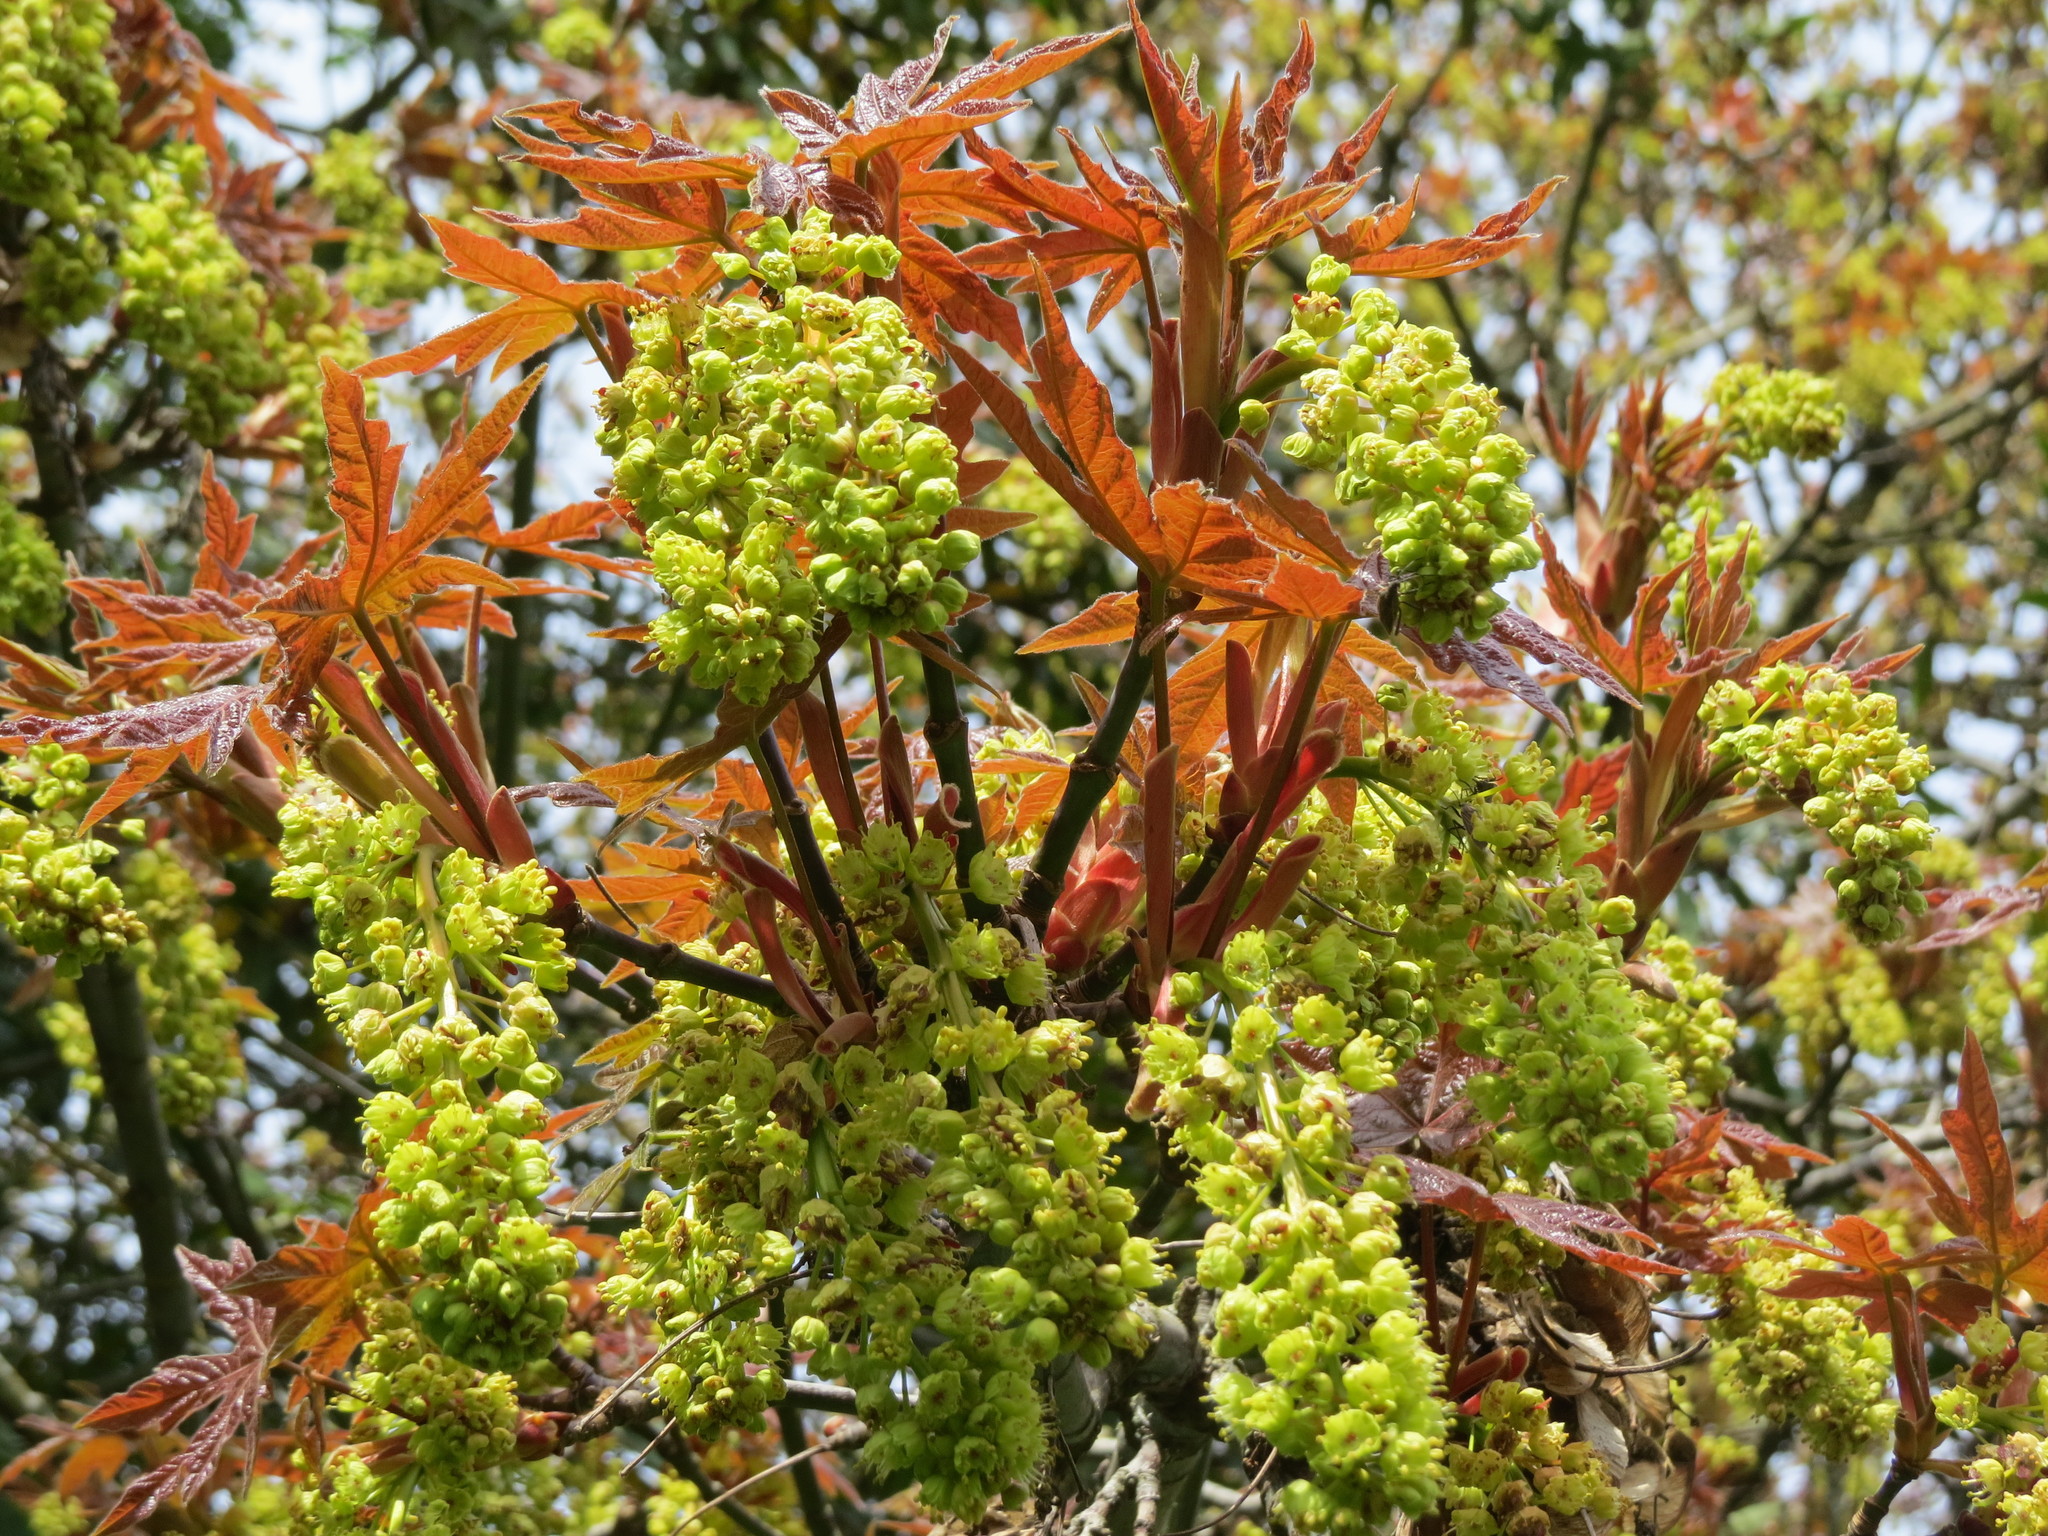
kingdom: Plantae
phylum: Tracheophyta
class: Magnoliopsida
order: Sapindales
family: Sapindaceae
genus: Acer
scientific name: Acer macrophyllum
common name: Oregon maple
